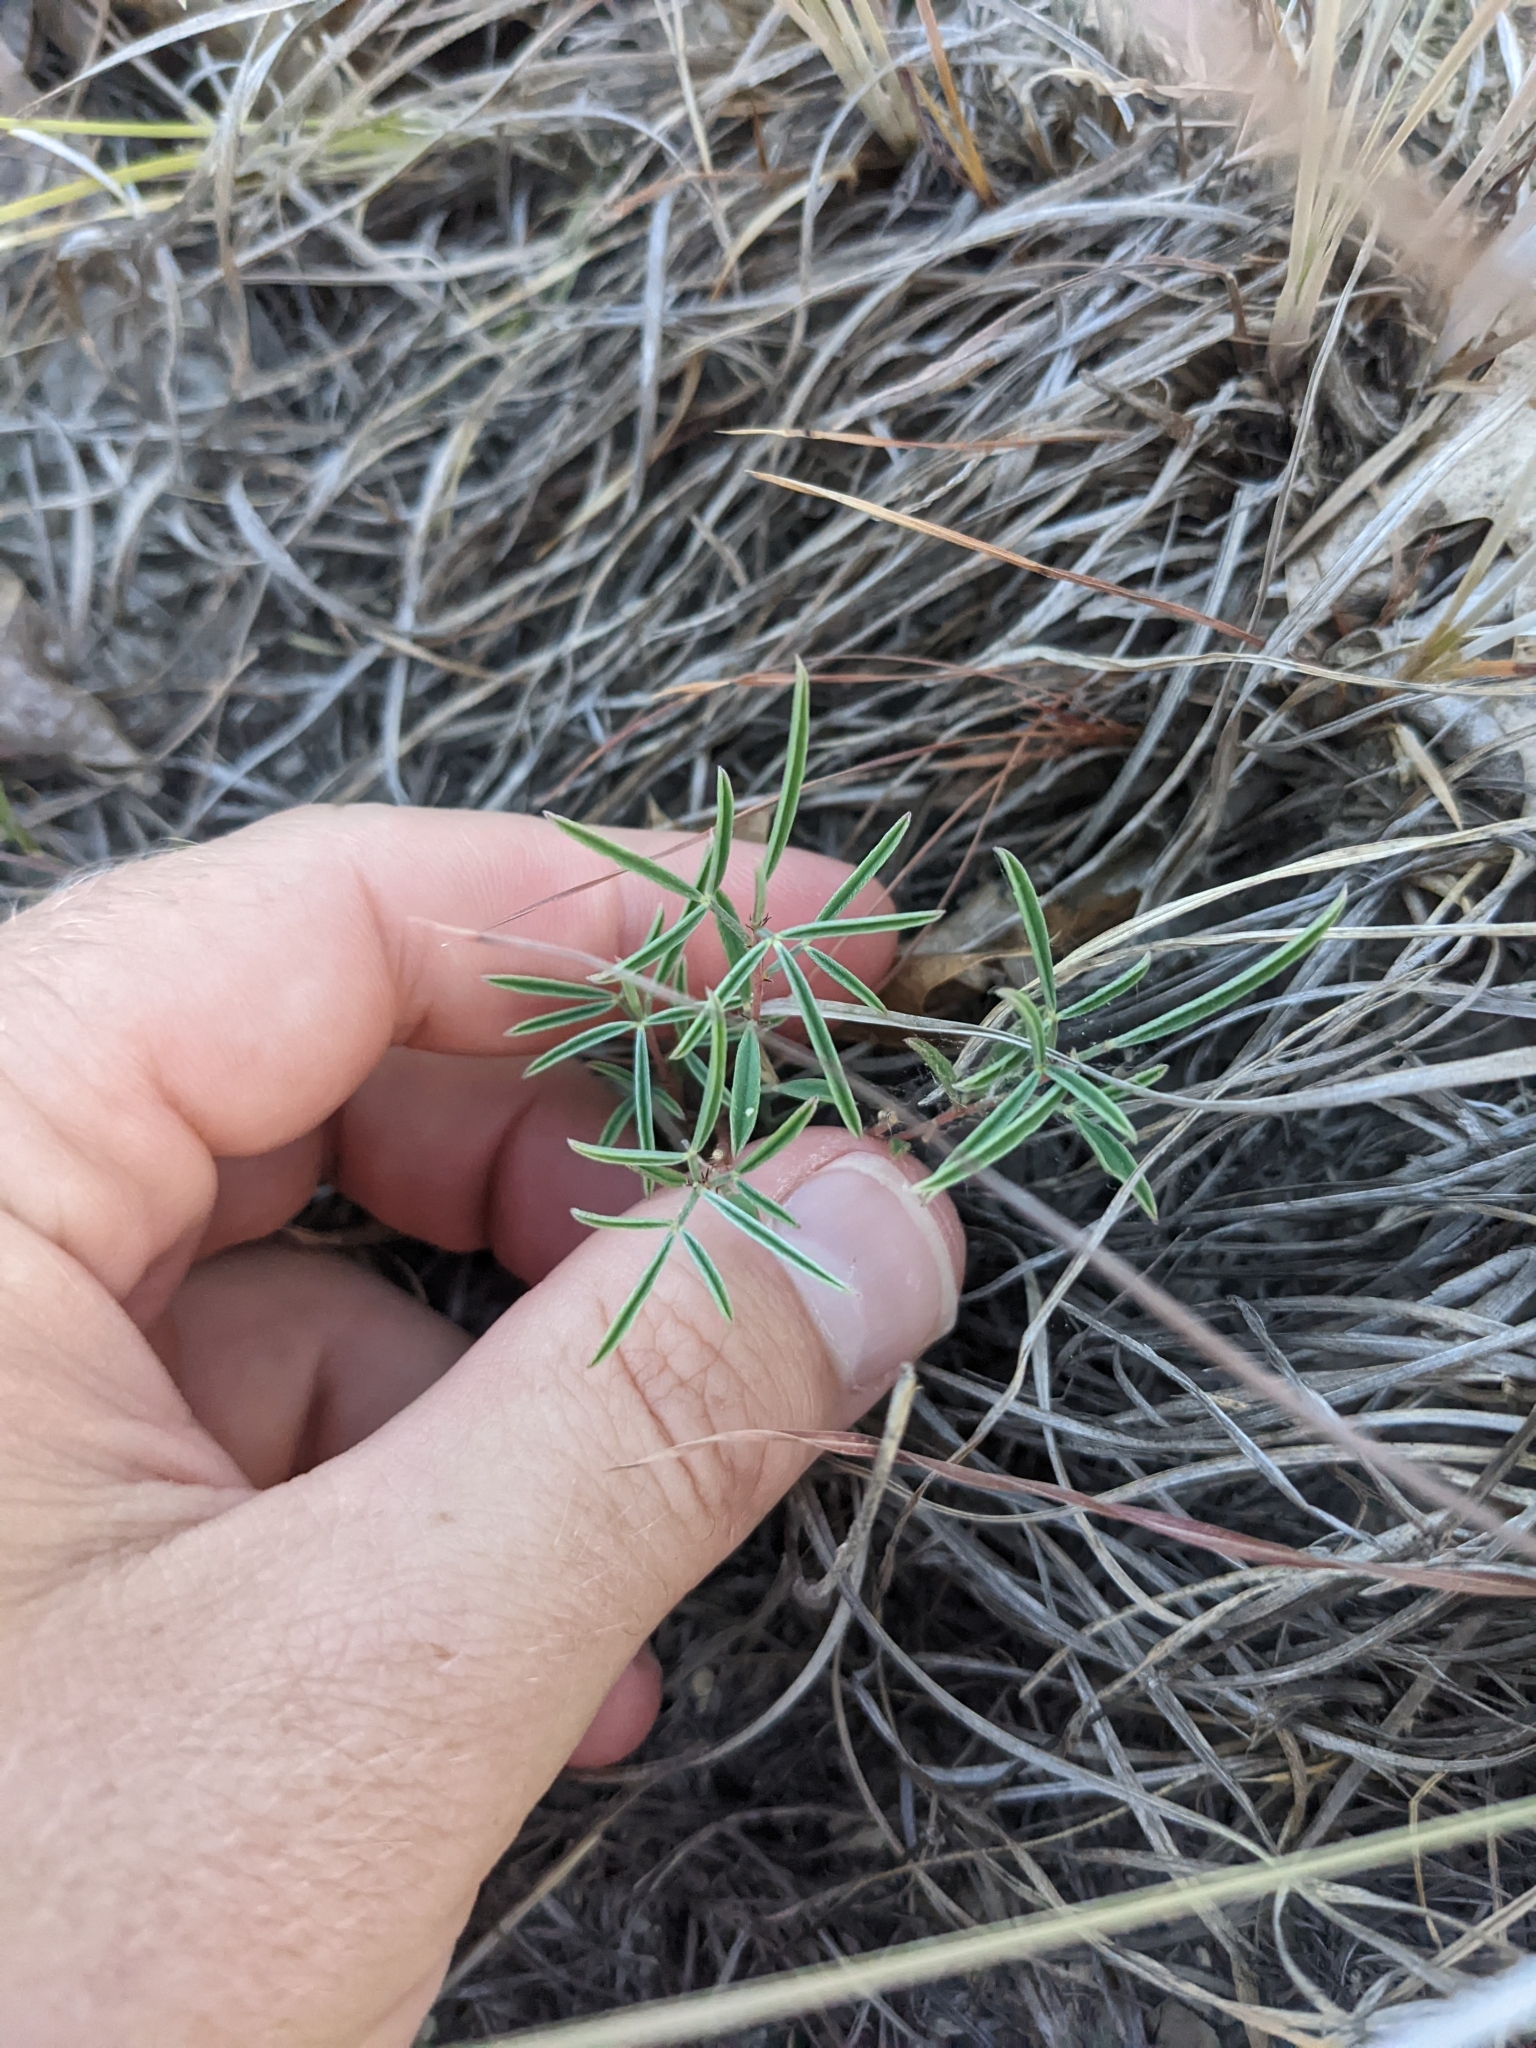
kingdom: Plantae
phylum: Tracheophyta
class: Magnoliopsida
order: Fabales
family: Fabaceae
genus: Dalea
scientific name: Dalea hallii
